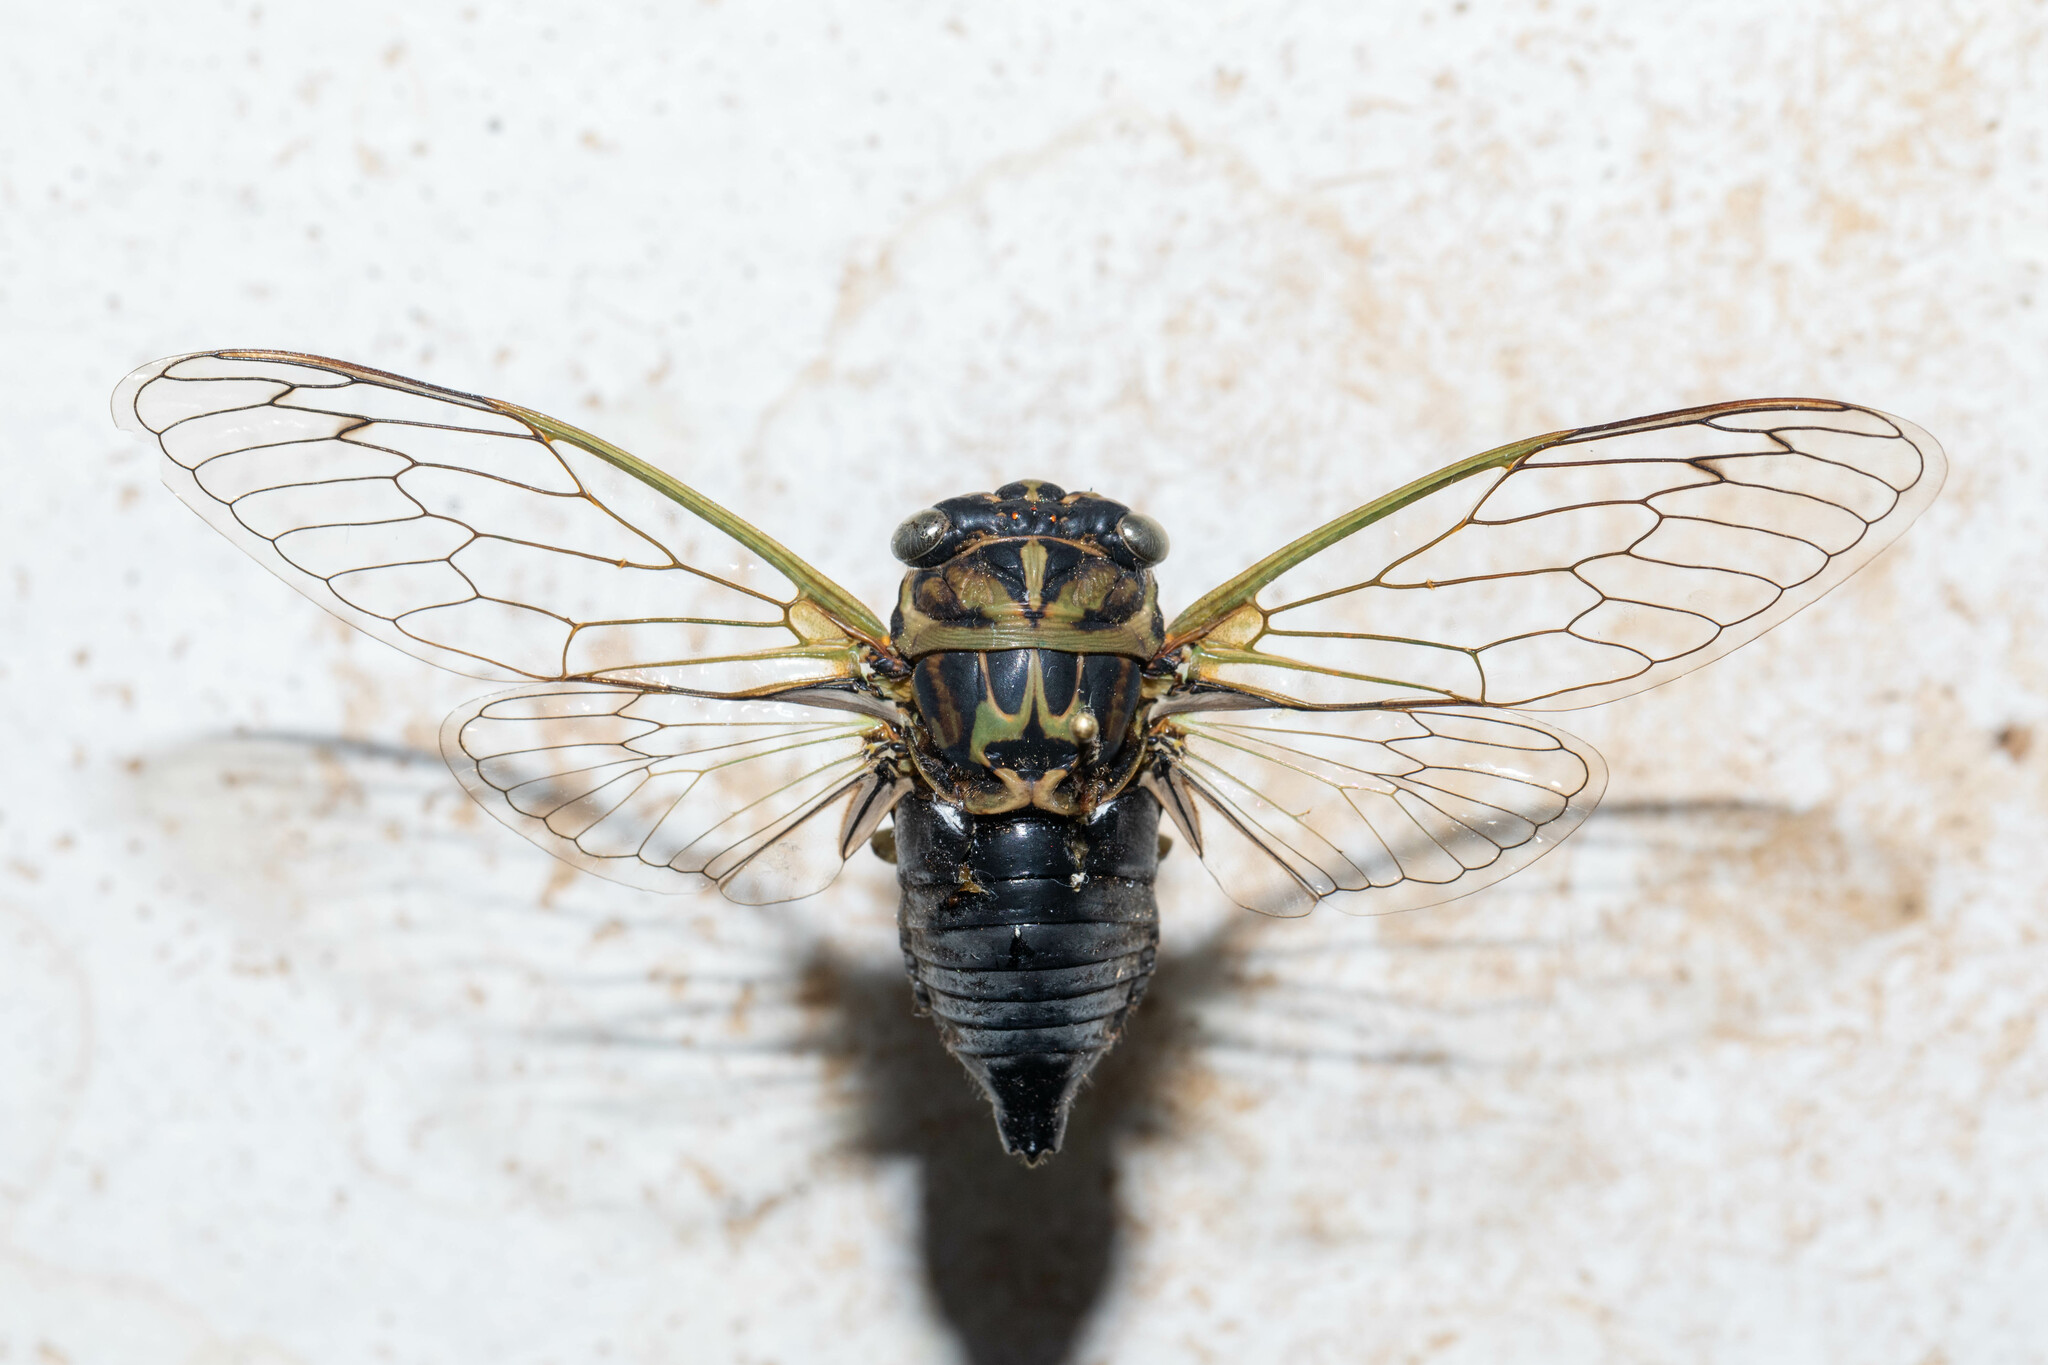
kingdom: Animalia
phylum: Arthropoda
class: Insecta
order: Hemiptera
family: Cicadidae
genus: Neotibicen
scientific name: Neotibicen canicularis
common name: God-day cicada
